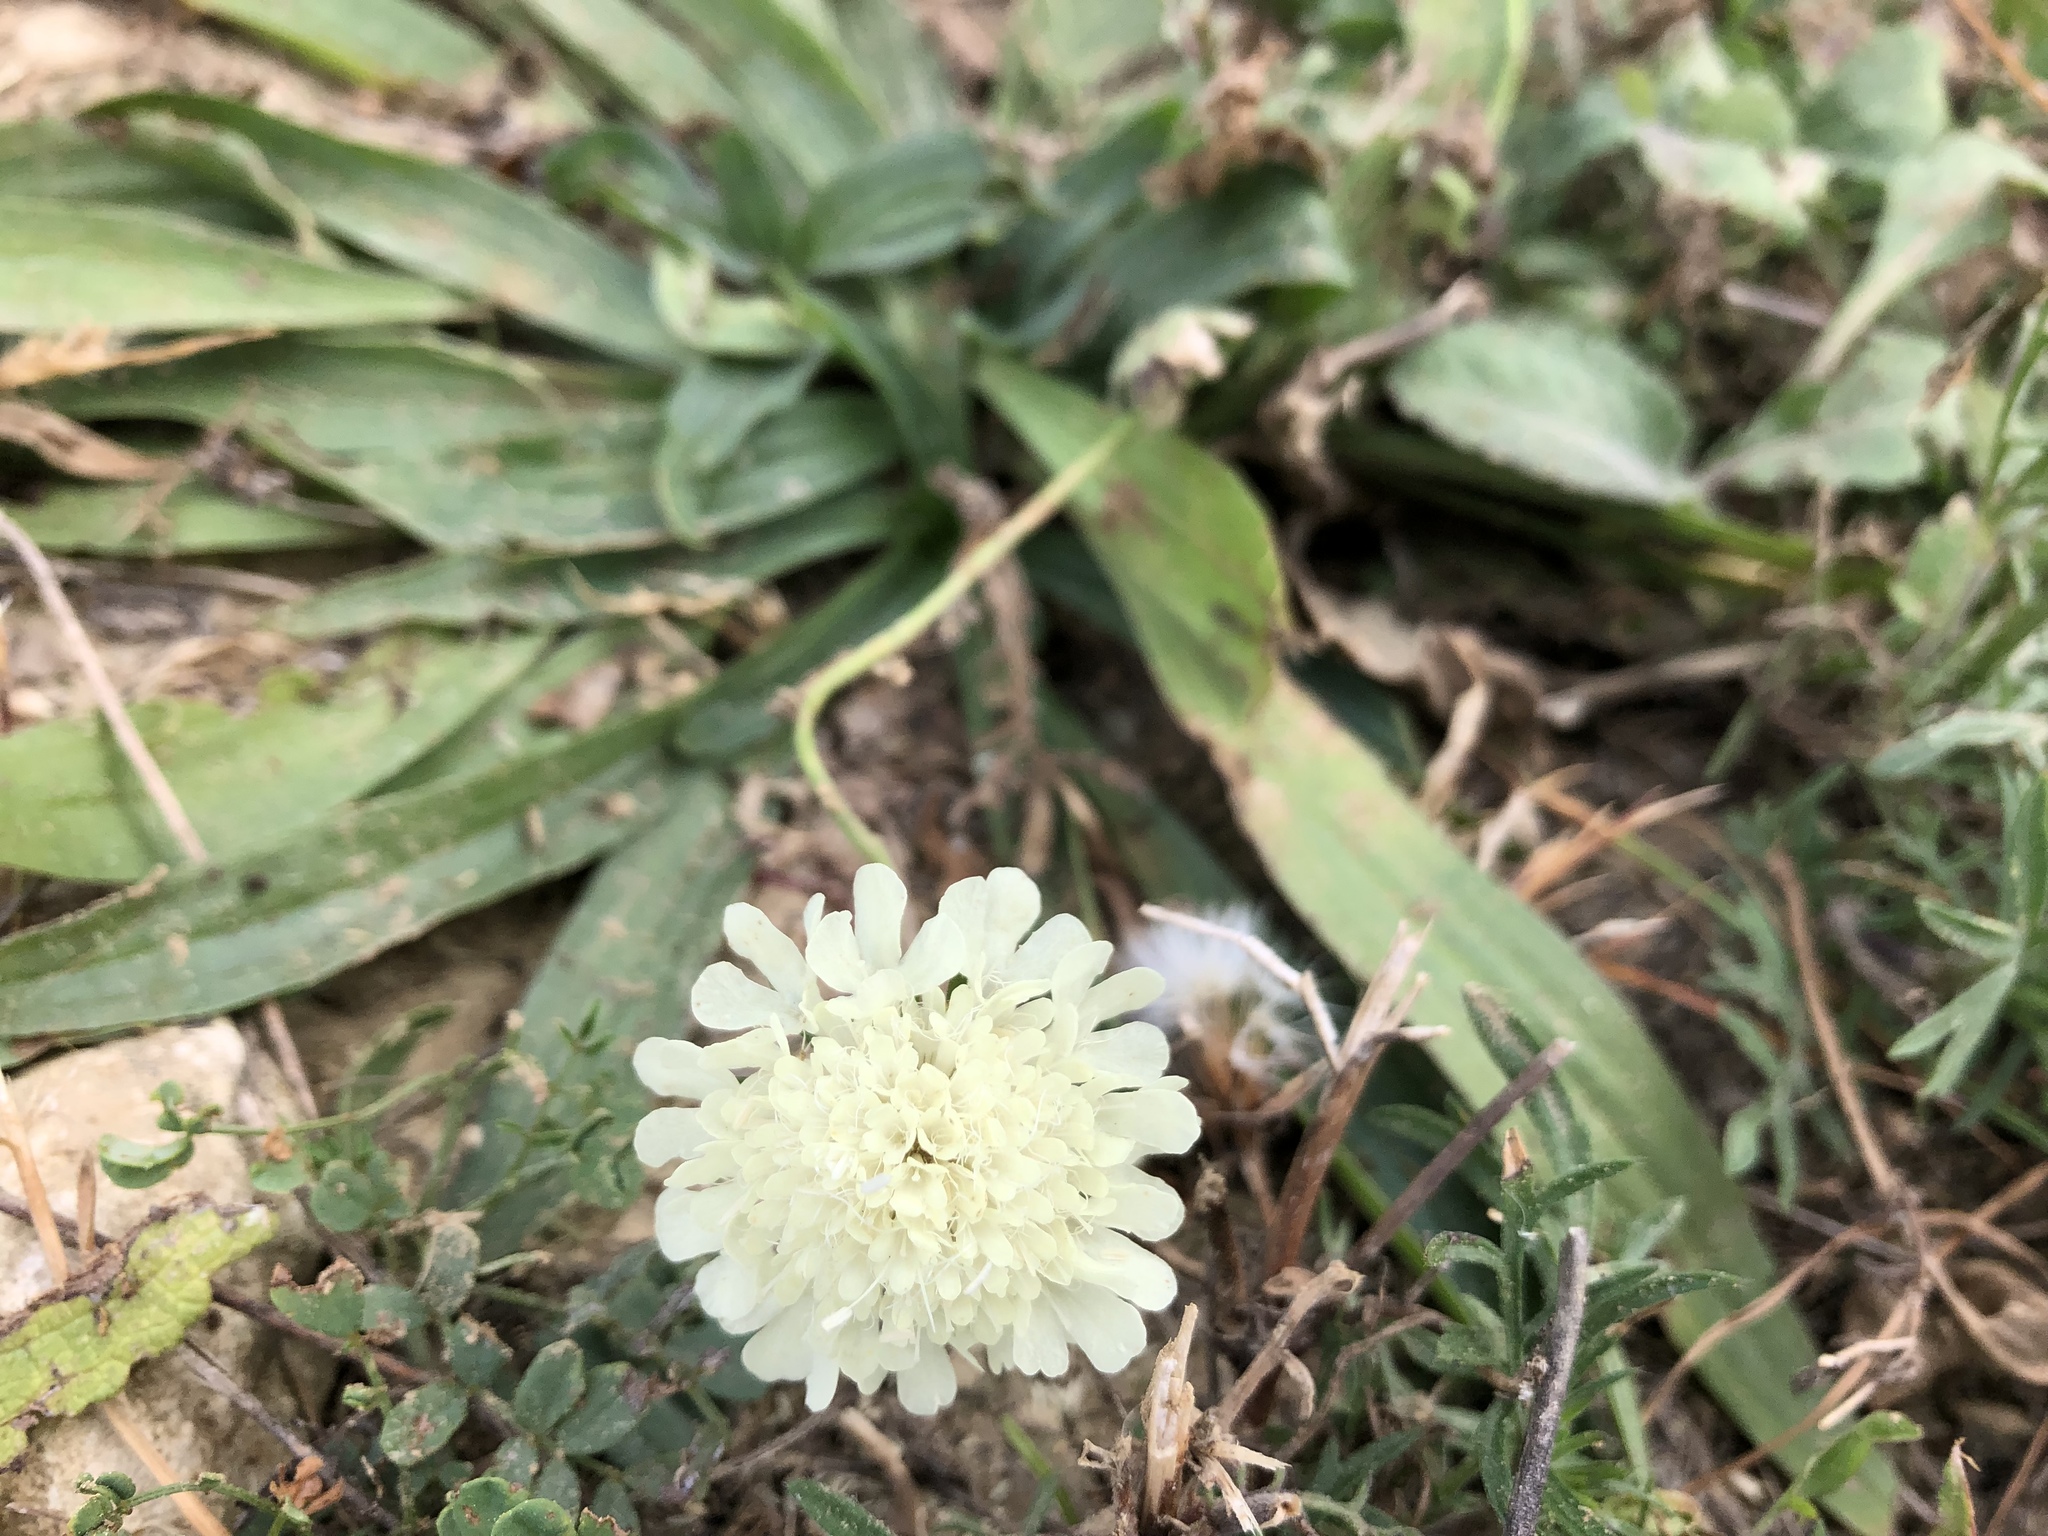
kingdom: Plantae
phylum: Tracheophyta
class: Magnoliopsida
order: Dipsacales
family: Caprifoliaceae
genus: Scabiosa
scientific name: Scabiosa ochroleuca
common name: Cream pincushions
